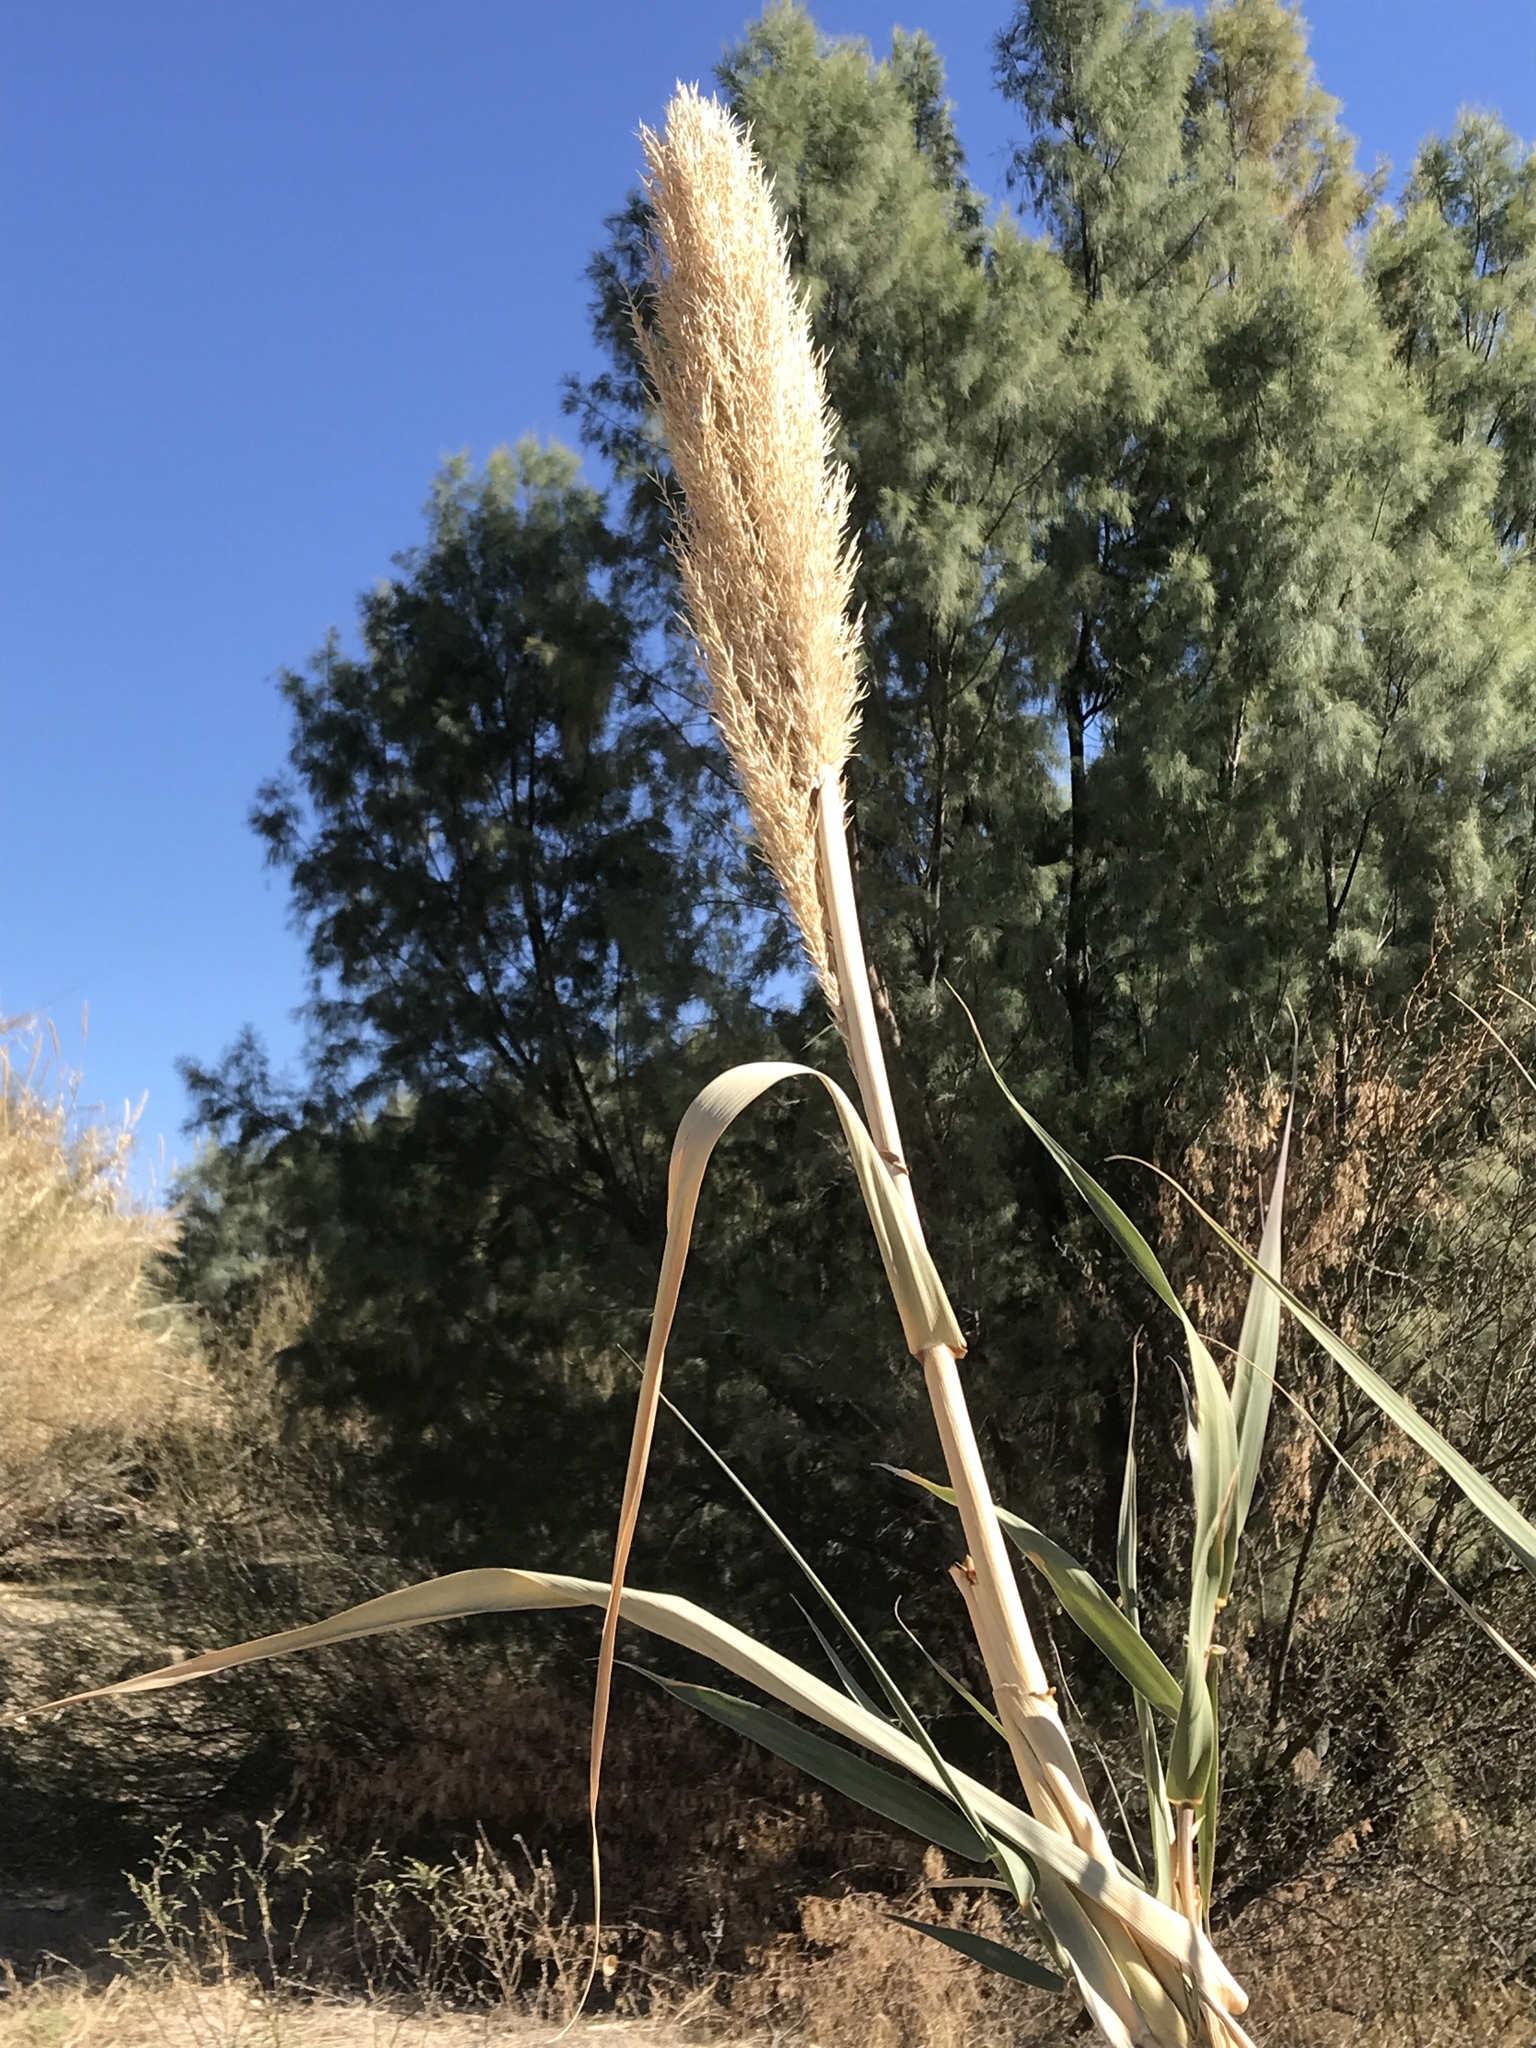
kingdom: Plantae
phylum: Tracheophyta
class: Liliopsida
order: Poales
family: Poaceae
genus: Arundo
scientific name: Arundo donax
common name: Giant reed
